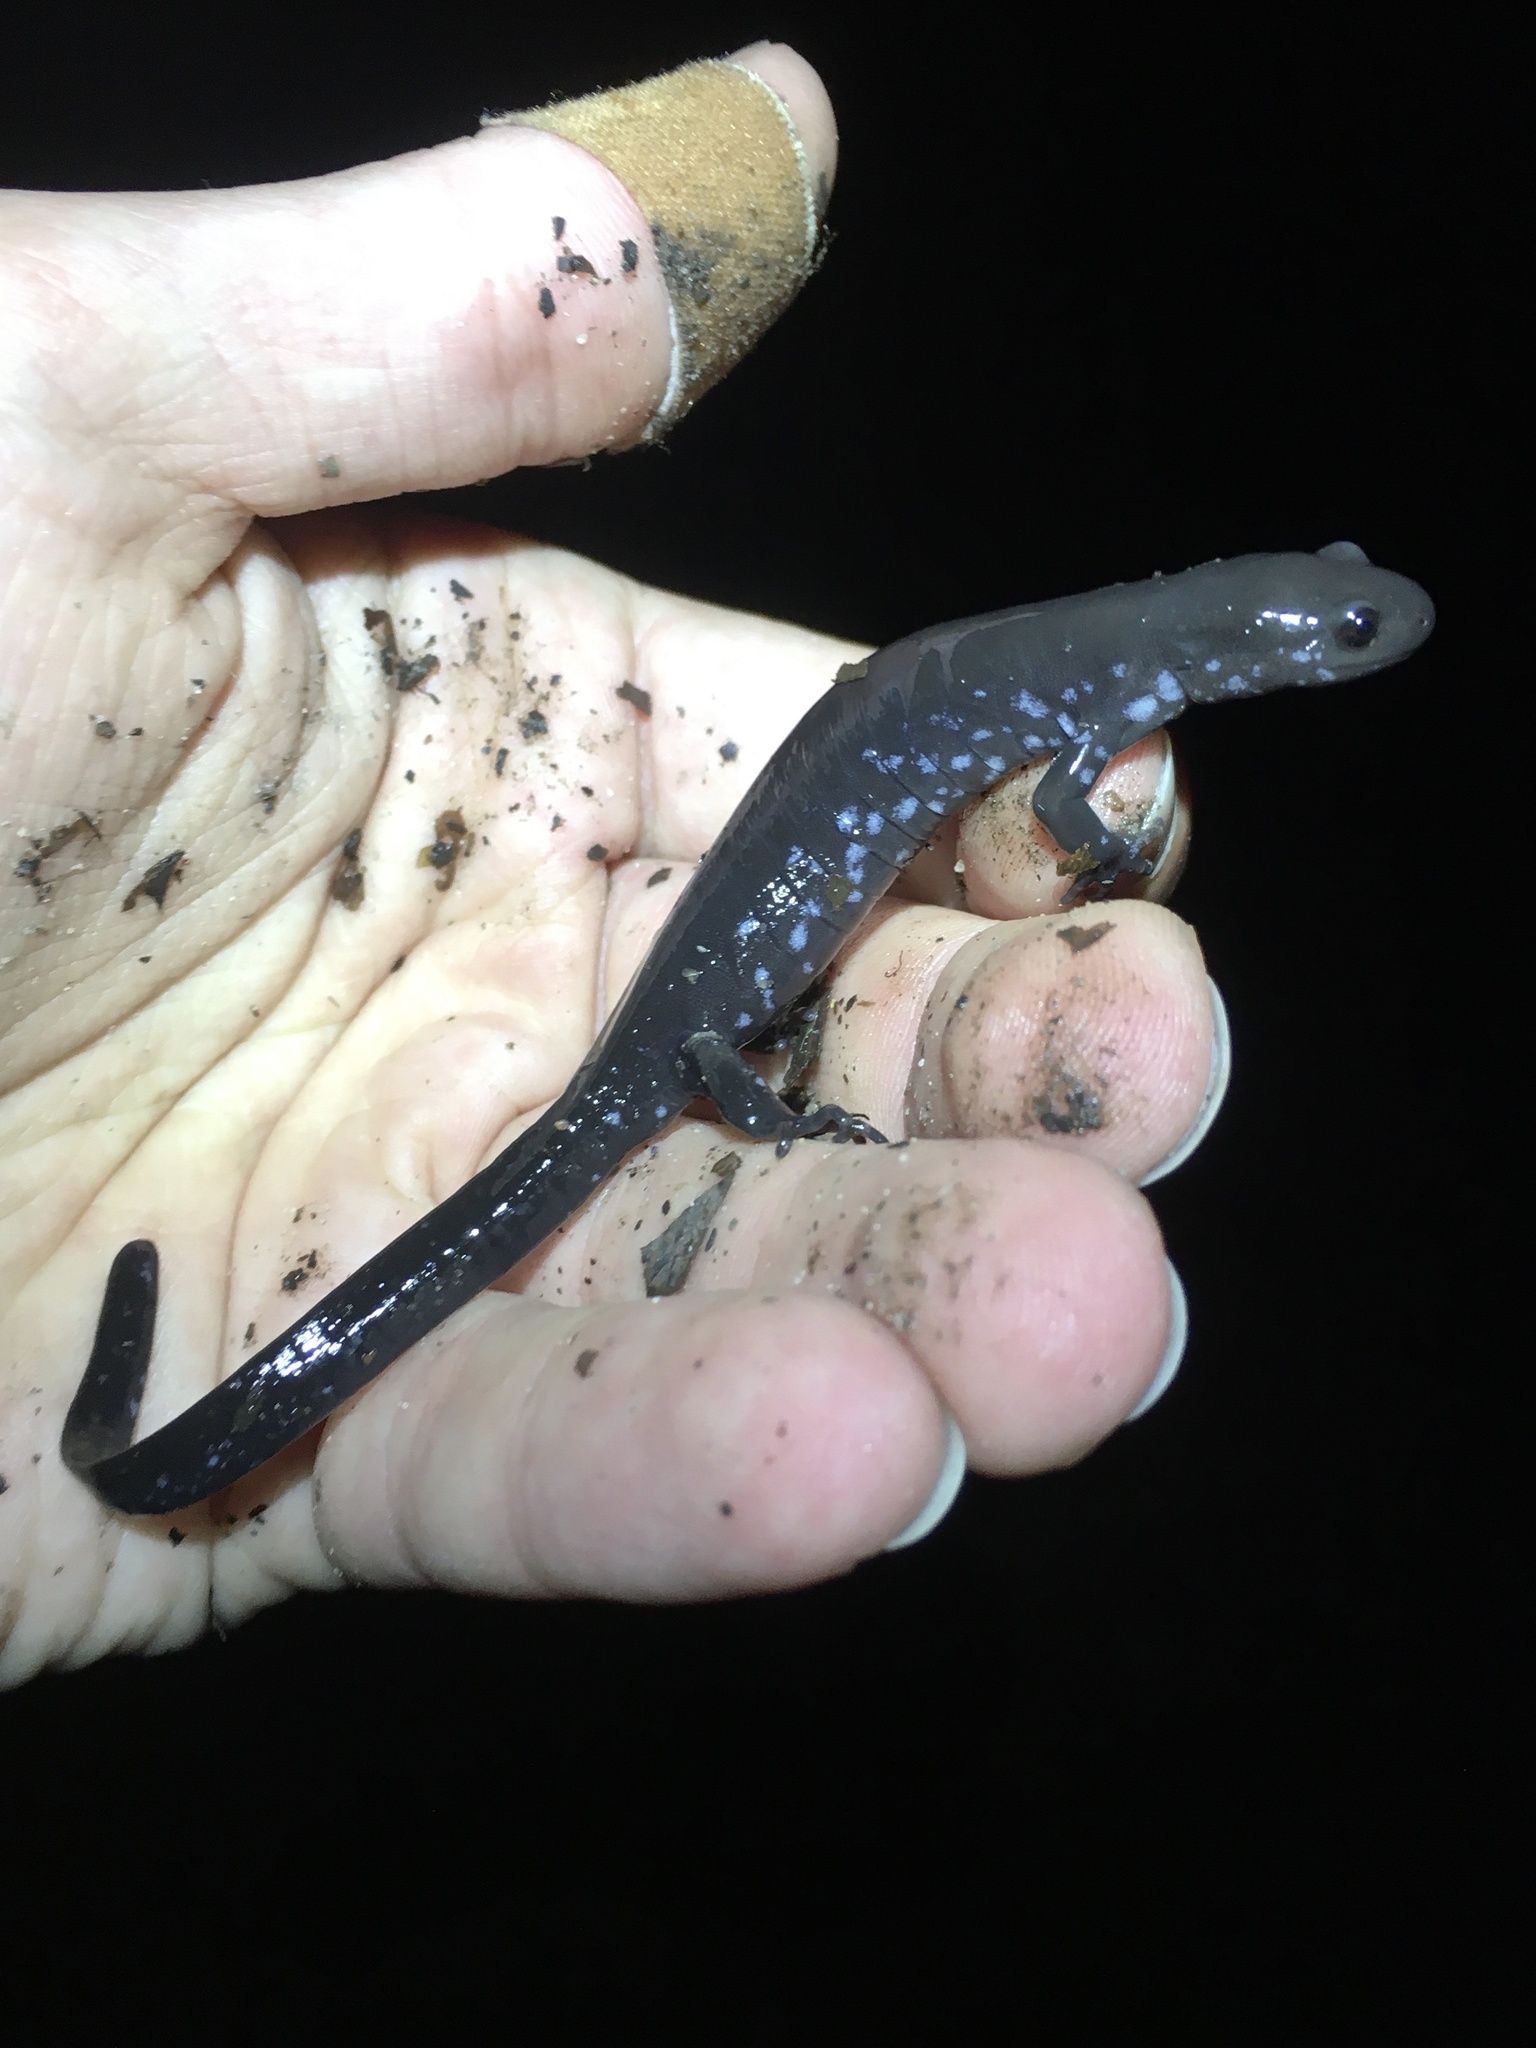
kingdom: Animalia
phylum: Chordata
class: Amphibia
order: Caudata
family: Ambystomatidae
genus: Ambystoma
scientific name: Ambystoma laterale
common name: Blue-spotted salamander
